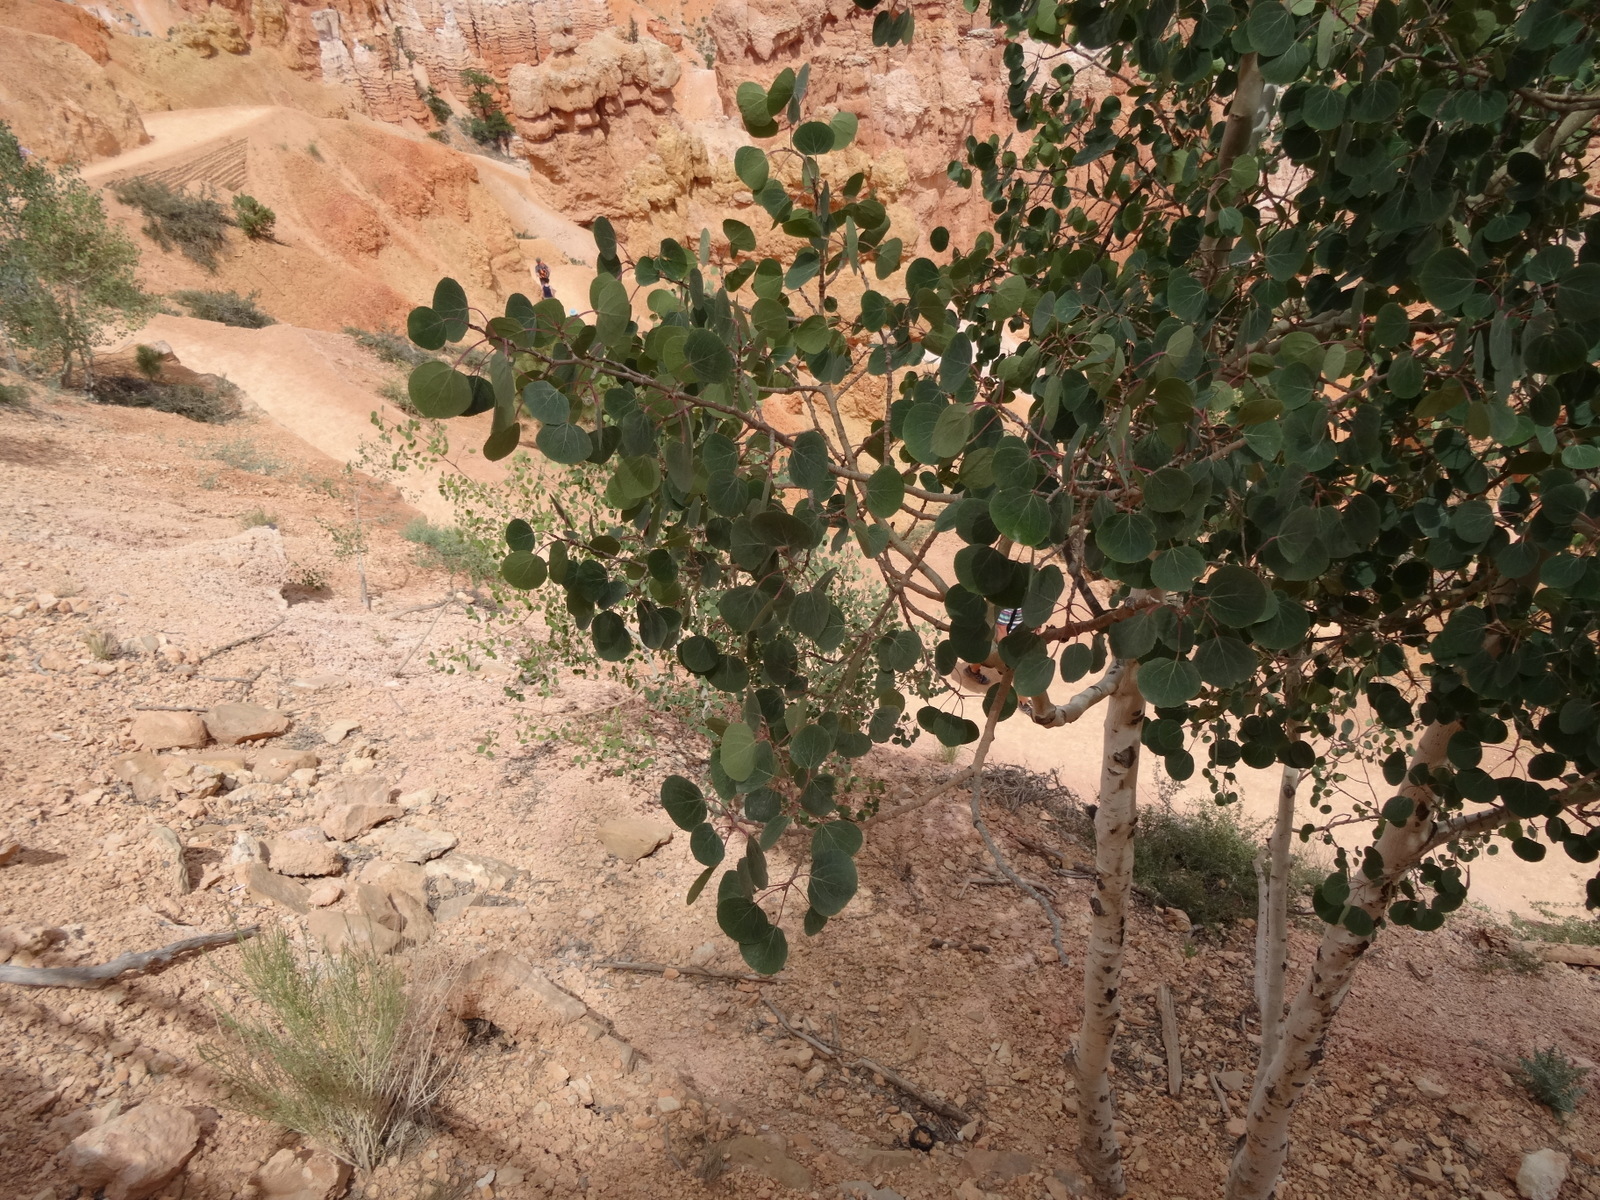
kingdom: Plantae
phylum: Tracheophyta
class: Magnoliopsida
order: Malpighiales
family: Salicaceae
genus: Populus
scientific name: Populus tremuloides
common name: Quaking aspen
